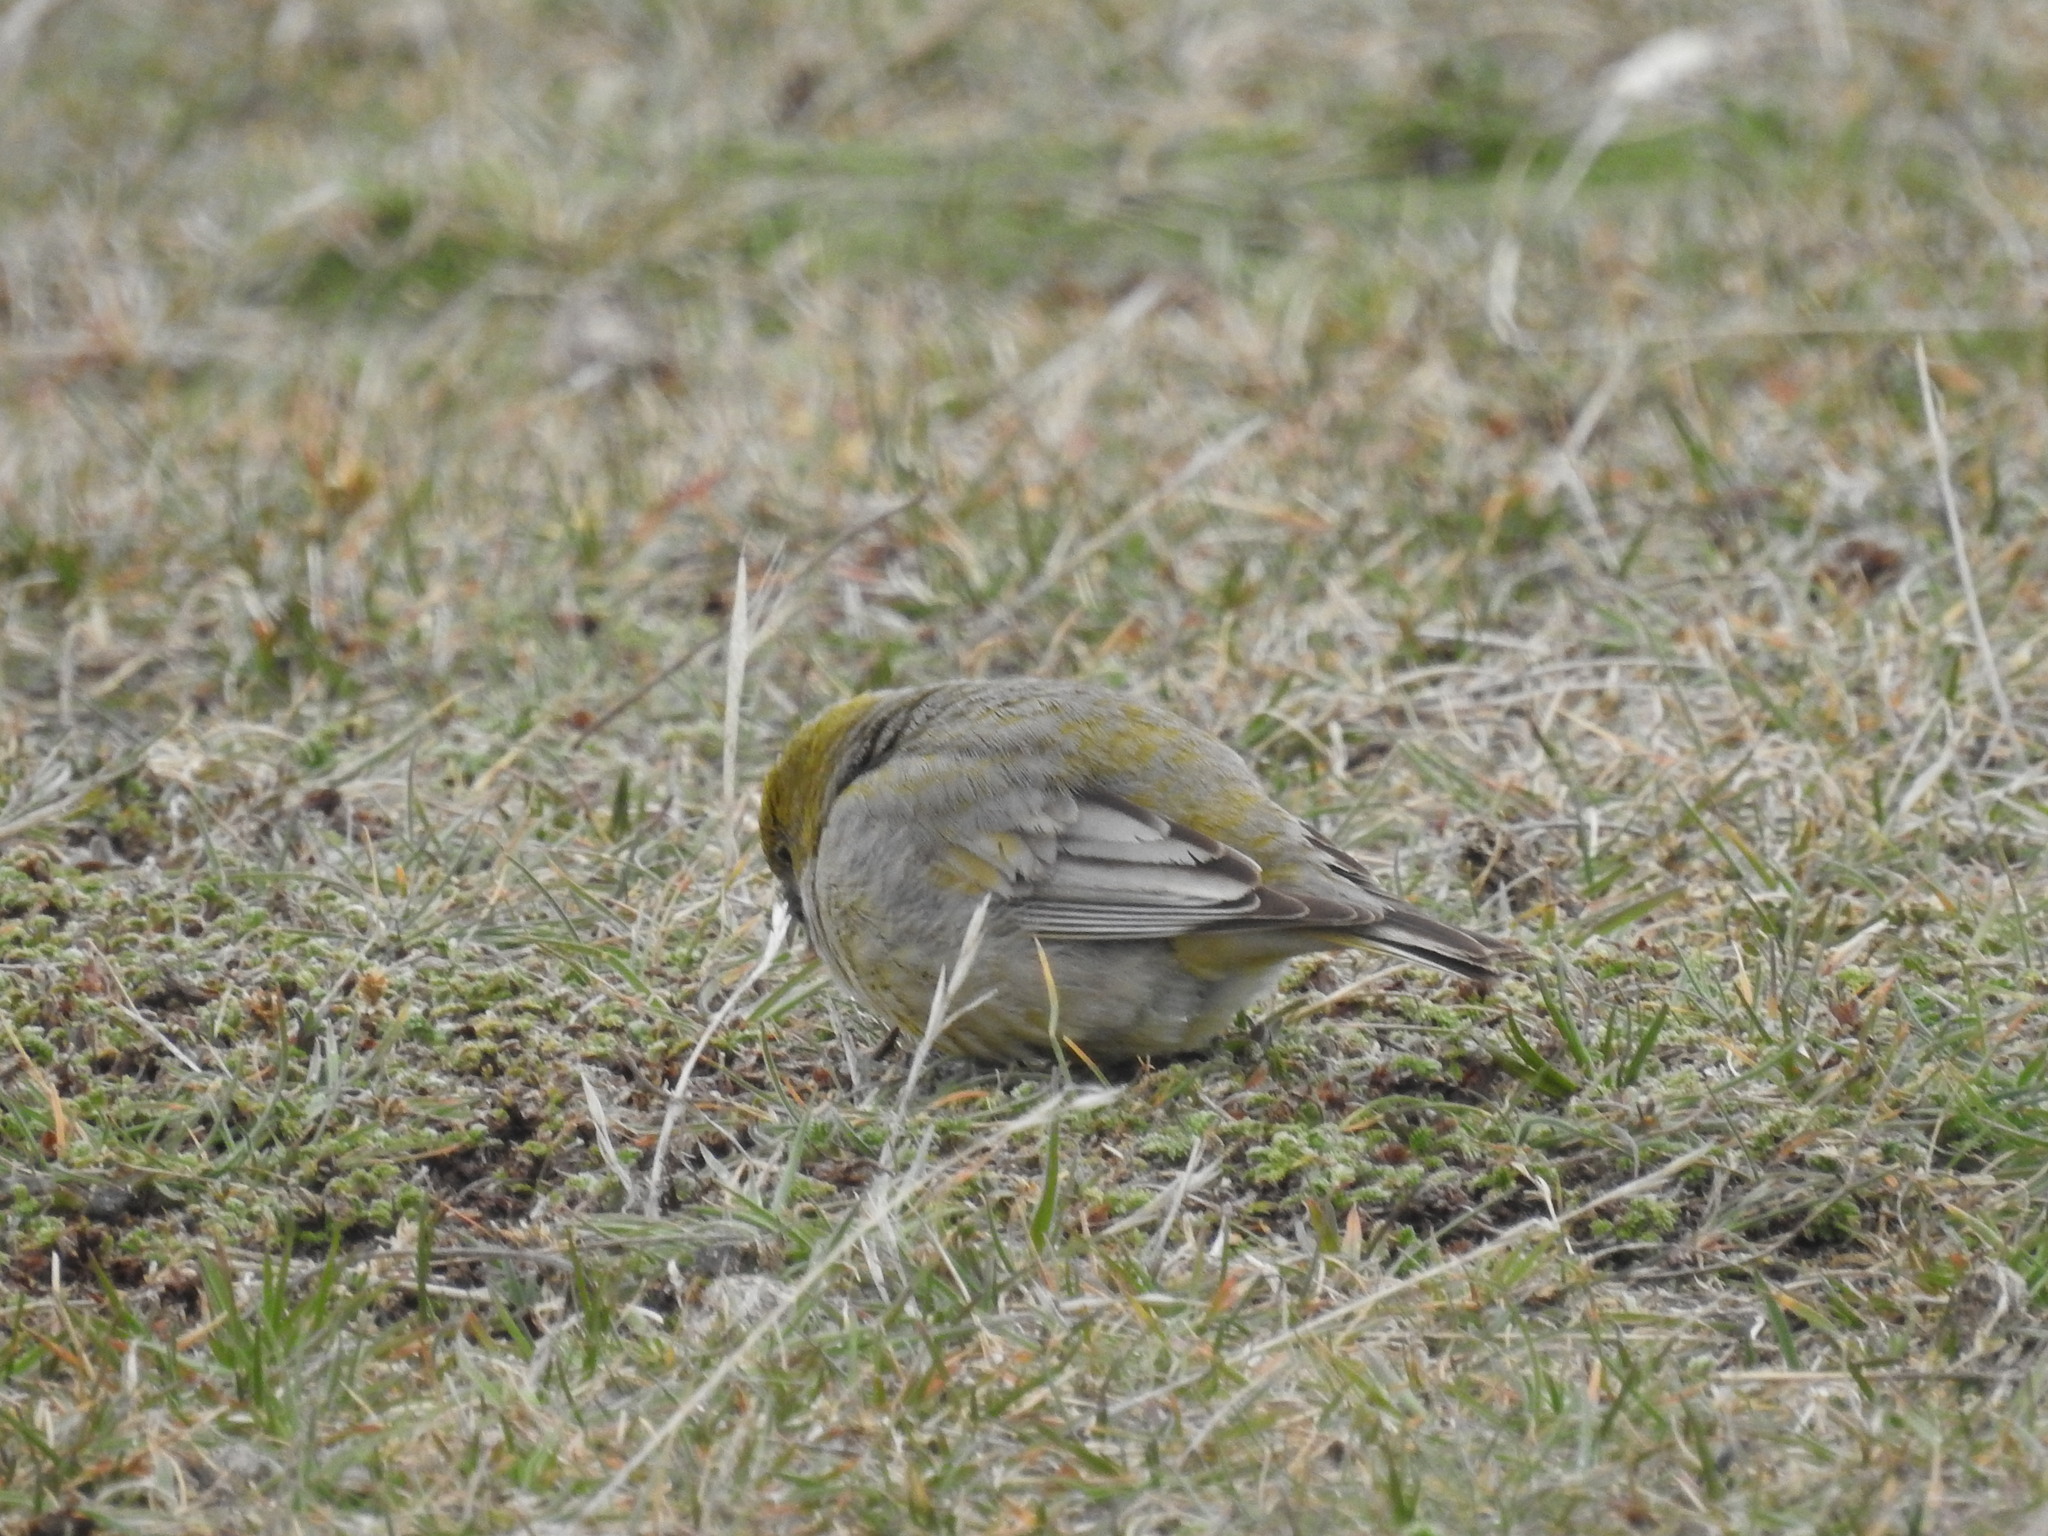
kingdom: Animalia
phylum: Chordata
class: Aves
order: Passeriformes
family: Thraupidae
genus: Sicalis
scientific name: Sicalis lebruni
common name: Patagonian yellow finch
